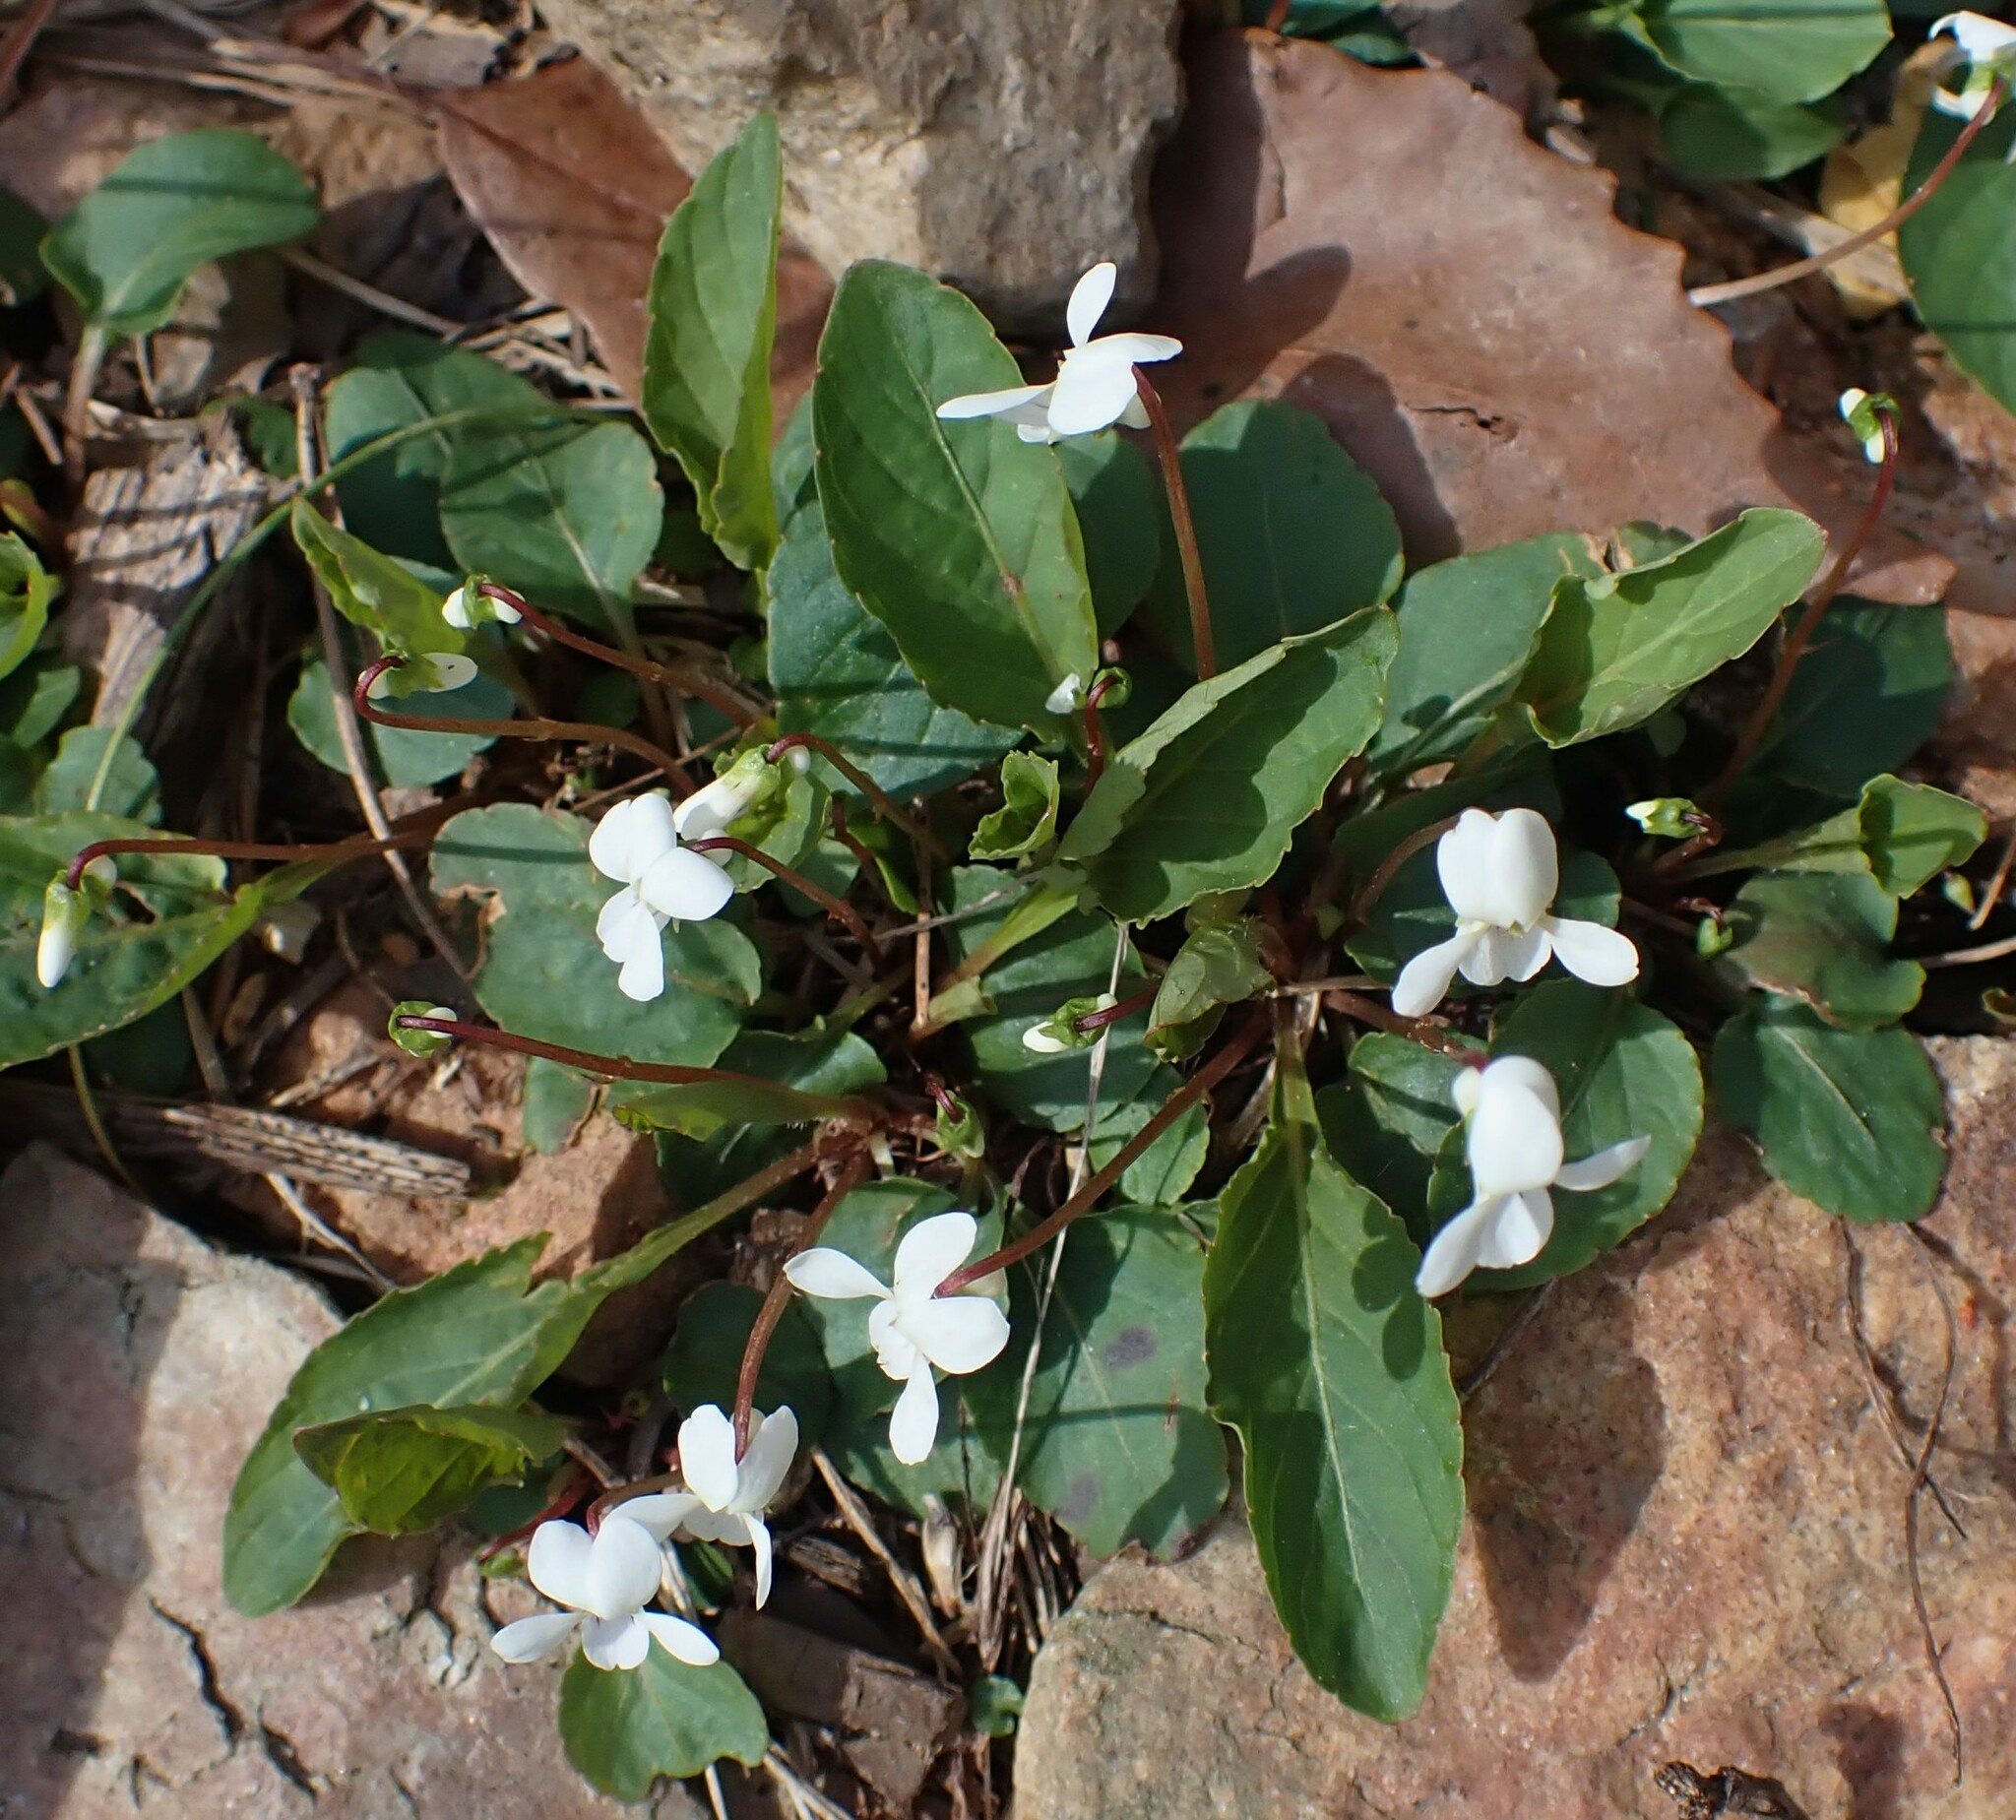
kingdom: Plantae
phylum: Tracheophyta
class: Magnoliopsida
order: Malpighiales
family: Violaceae
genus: Viola
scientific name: Viola primulifolia
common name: Primrose-leaf violet
